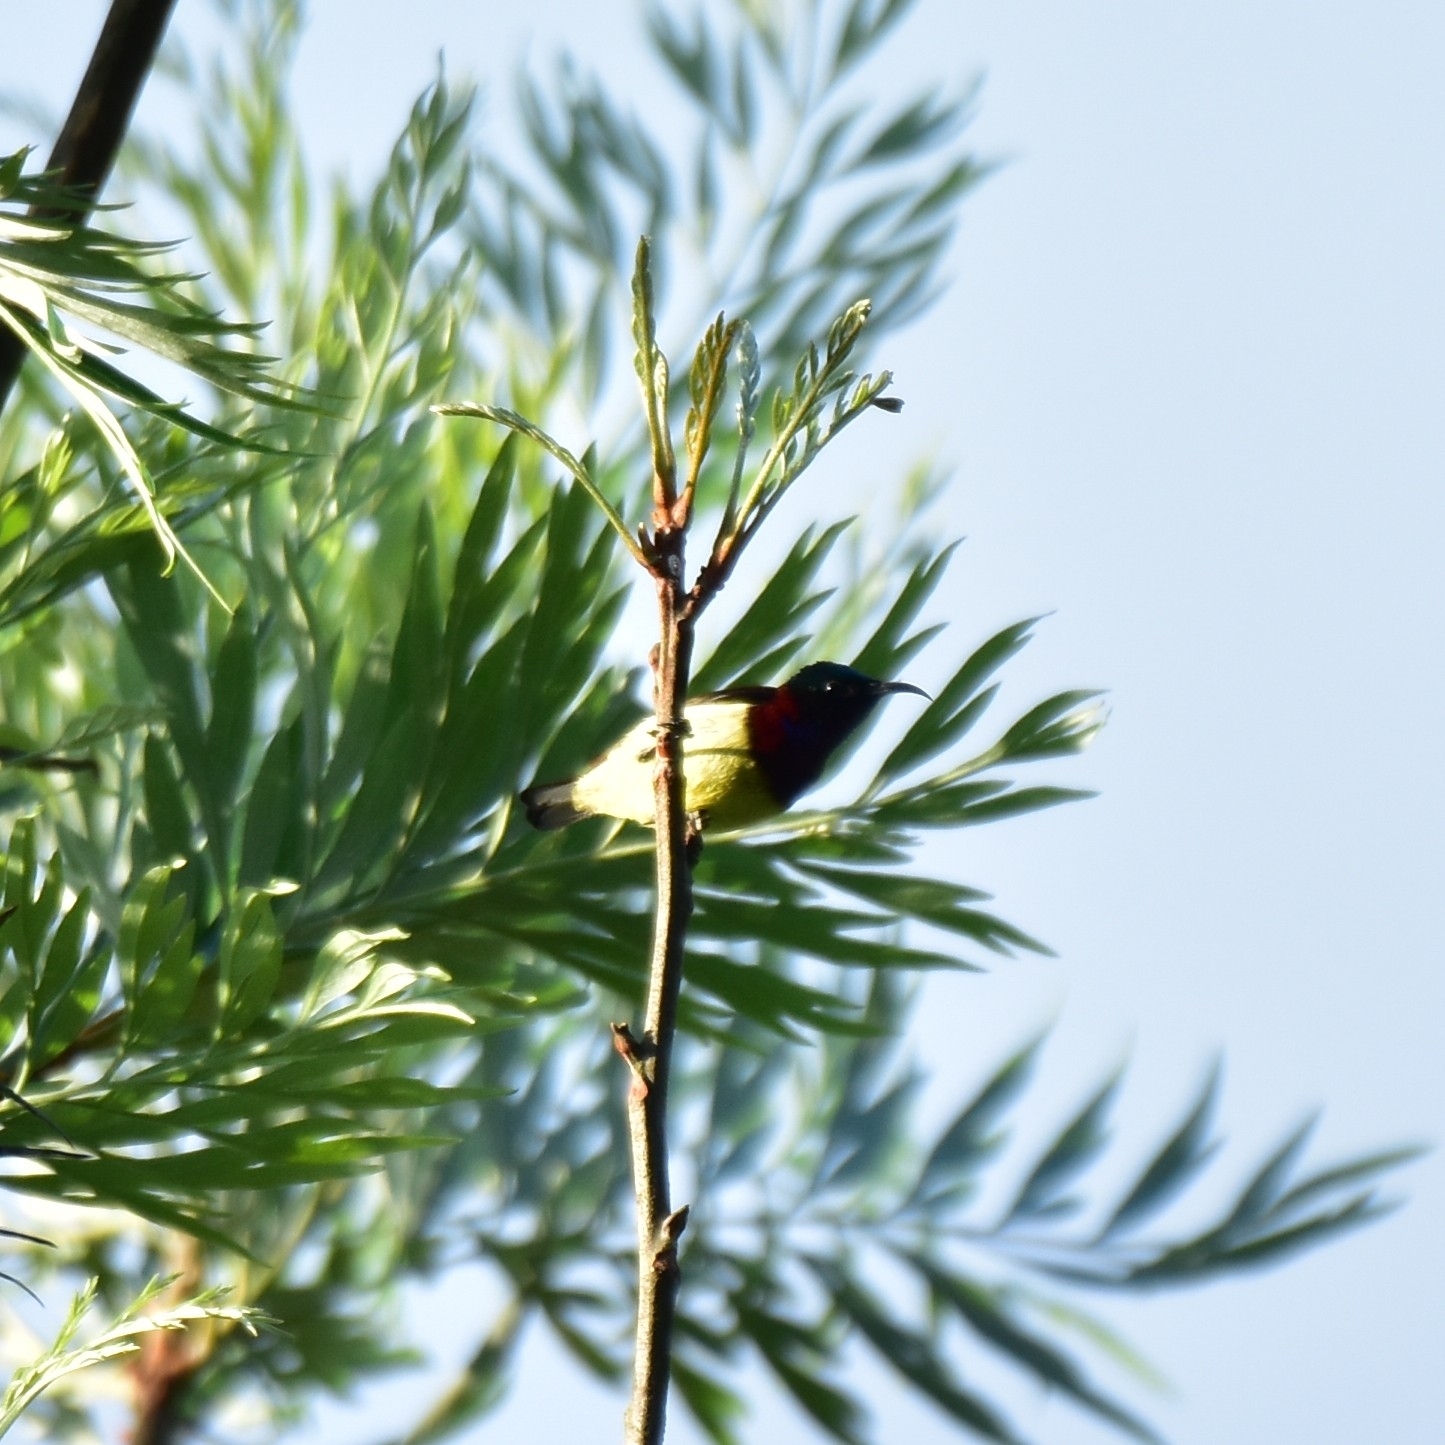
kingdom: Animalia
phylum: Chordata
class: Aves
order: Passeriformes
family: Nectariniidae
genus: Leptocoma
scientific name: Leptocoma minima
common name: Crimson-backed sunbird
